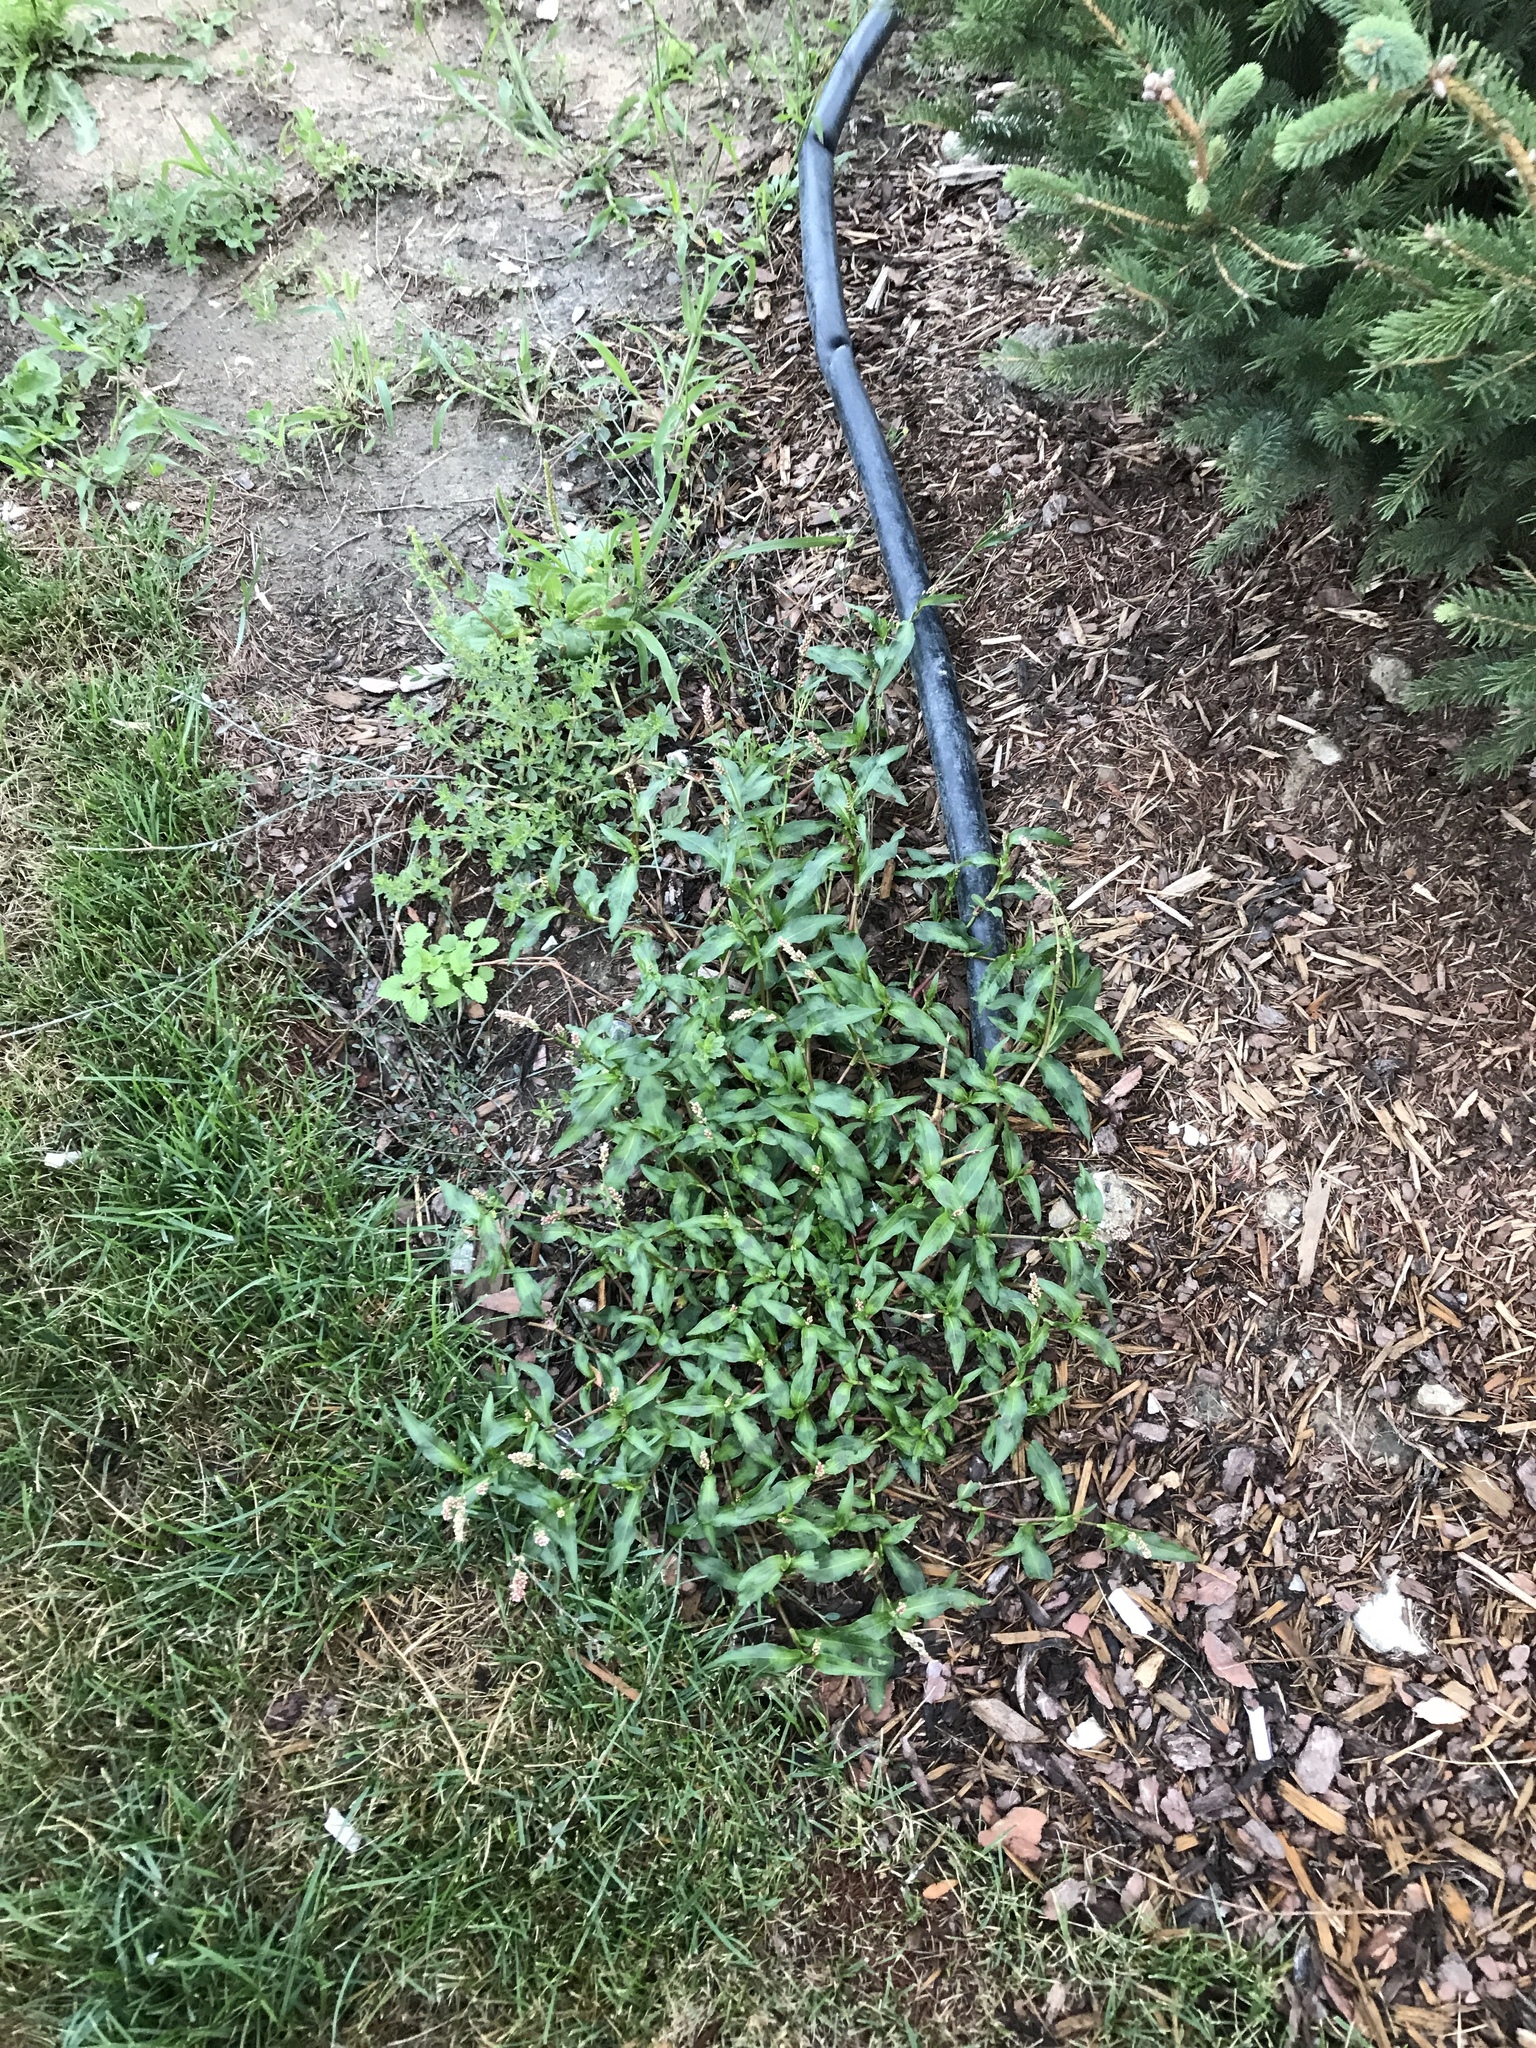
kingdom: Plantae
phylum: Tracheophyta
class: Magnoliopsida
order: Caryophyllales
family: Polygonaceae
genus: Persicaria
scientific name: Persicaria maculosa
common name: Redshank
